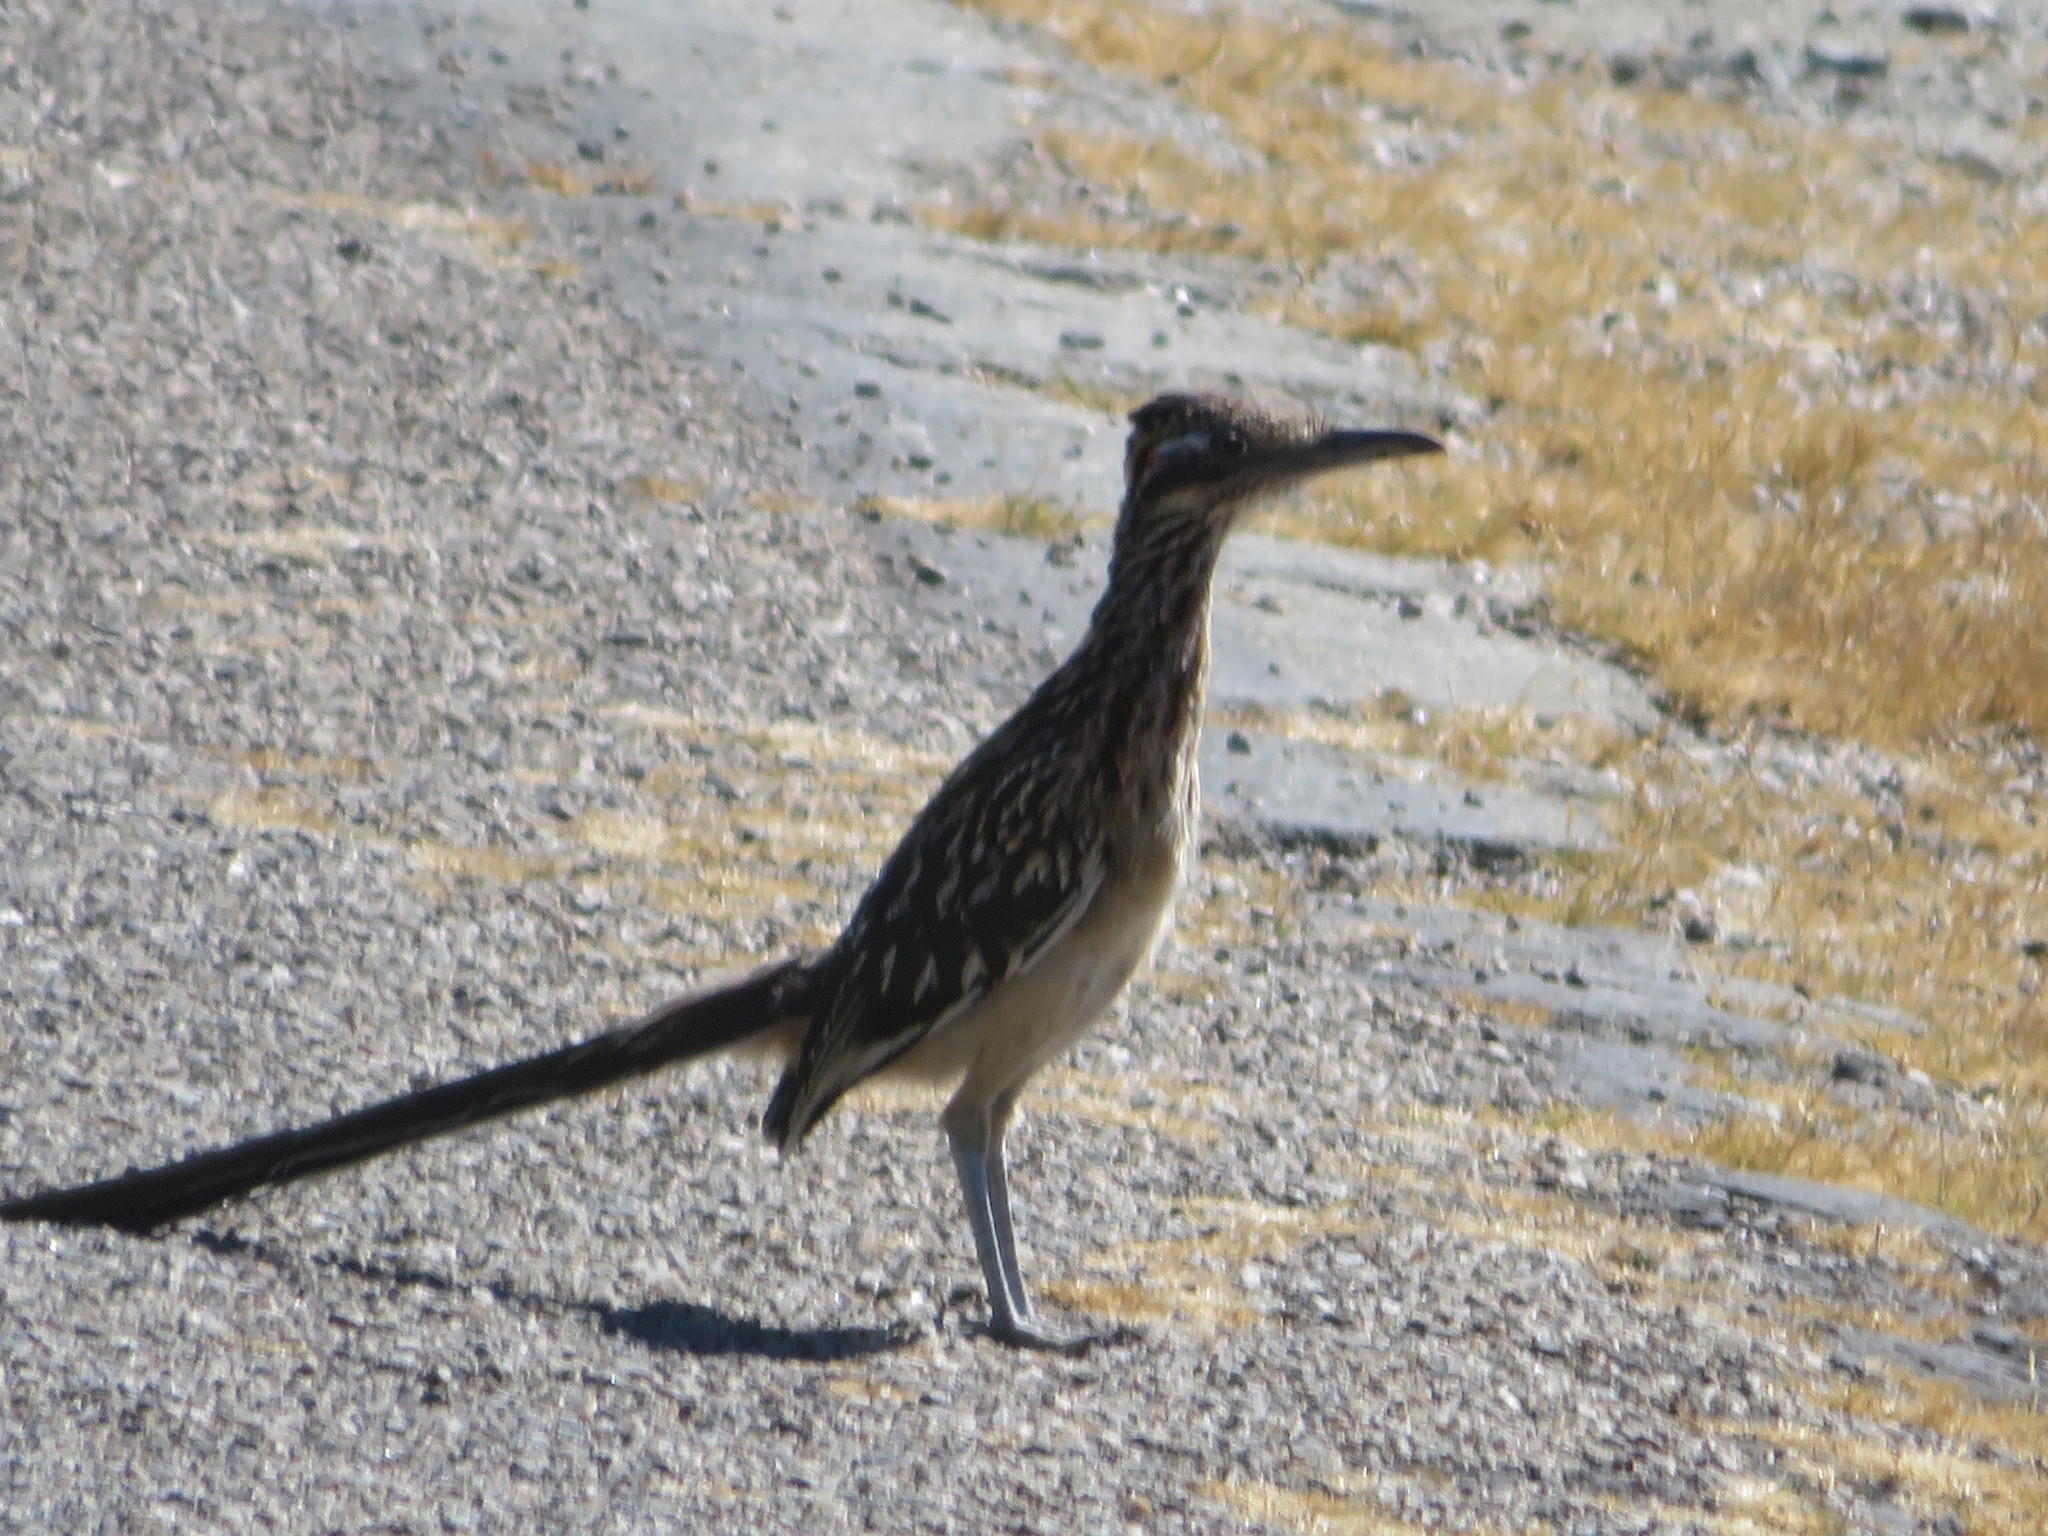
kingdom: Animalia
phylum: Chordata
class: Aves
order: Cuculiformes
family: Cuculidae
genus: Geococcyx
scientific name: Geococcyx californianus
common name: Greater roadrunner
